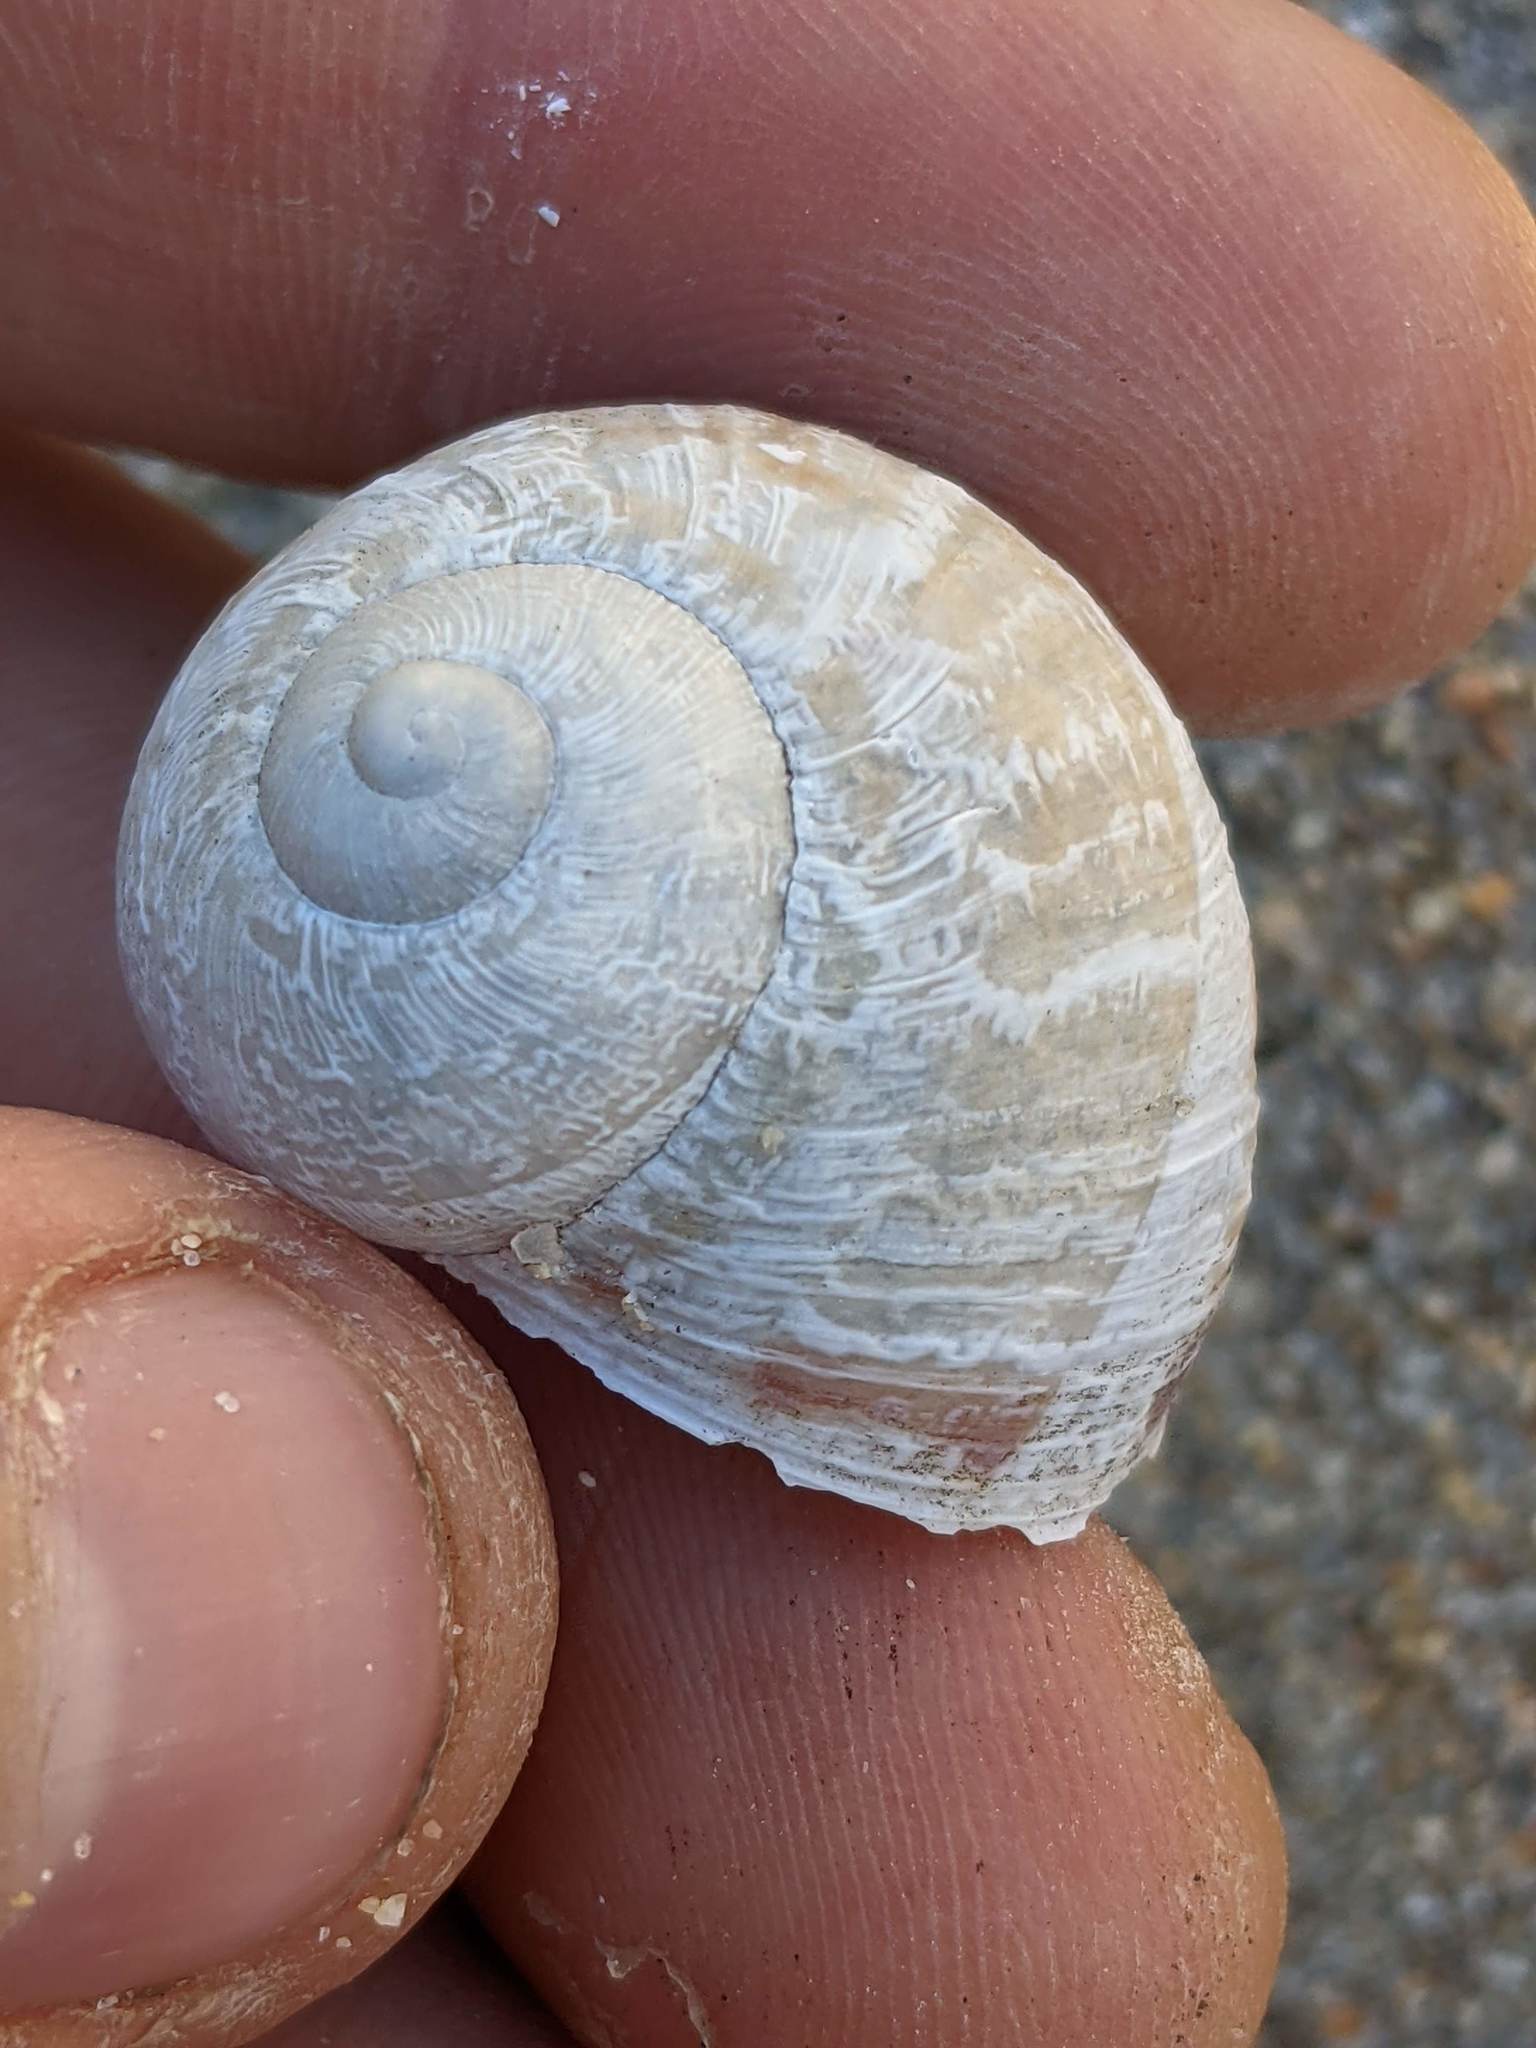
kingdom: Animalia
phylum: Mollusca
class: Gastropoda
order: Stylommatophora
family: Helicidae
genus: Cornu
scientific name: Cornu aspersum
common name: Brown garden snail
